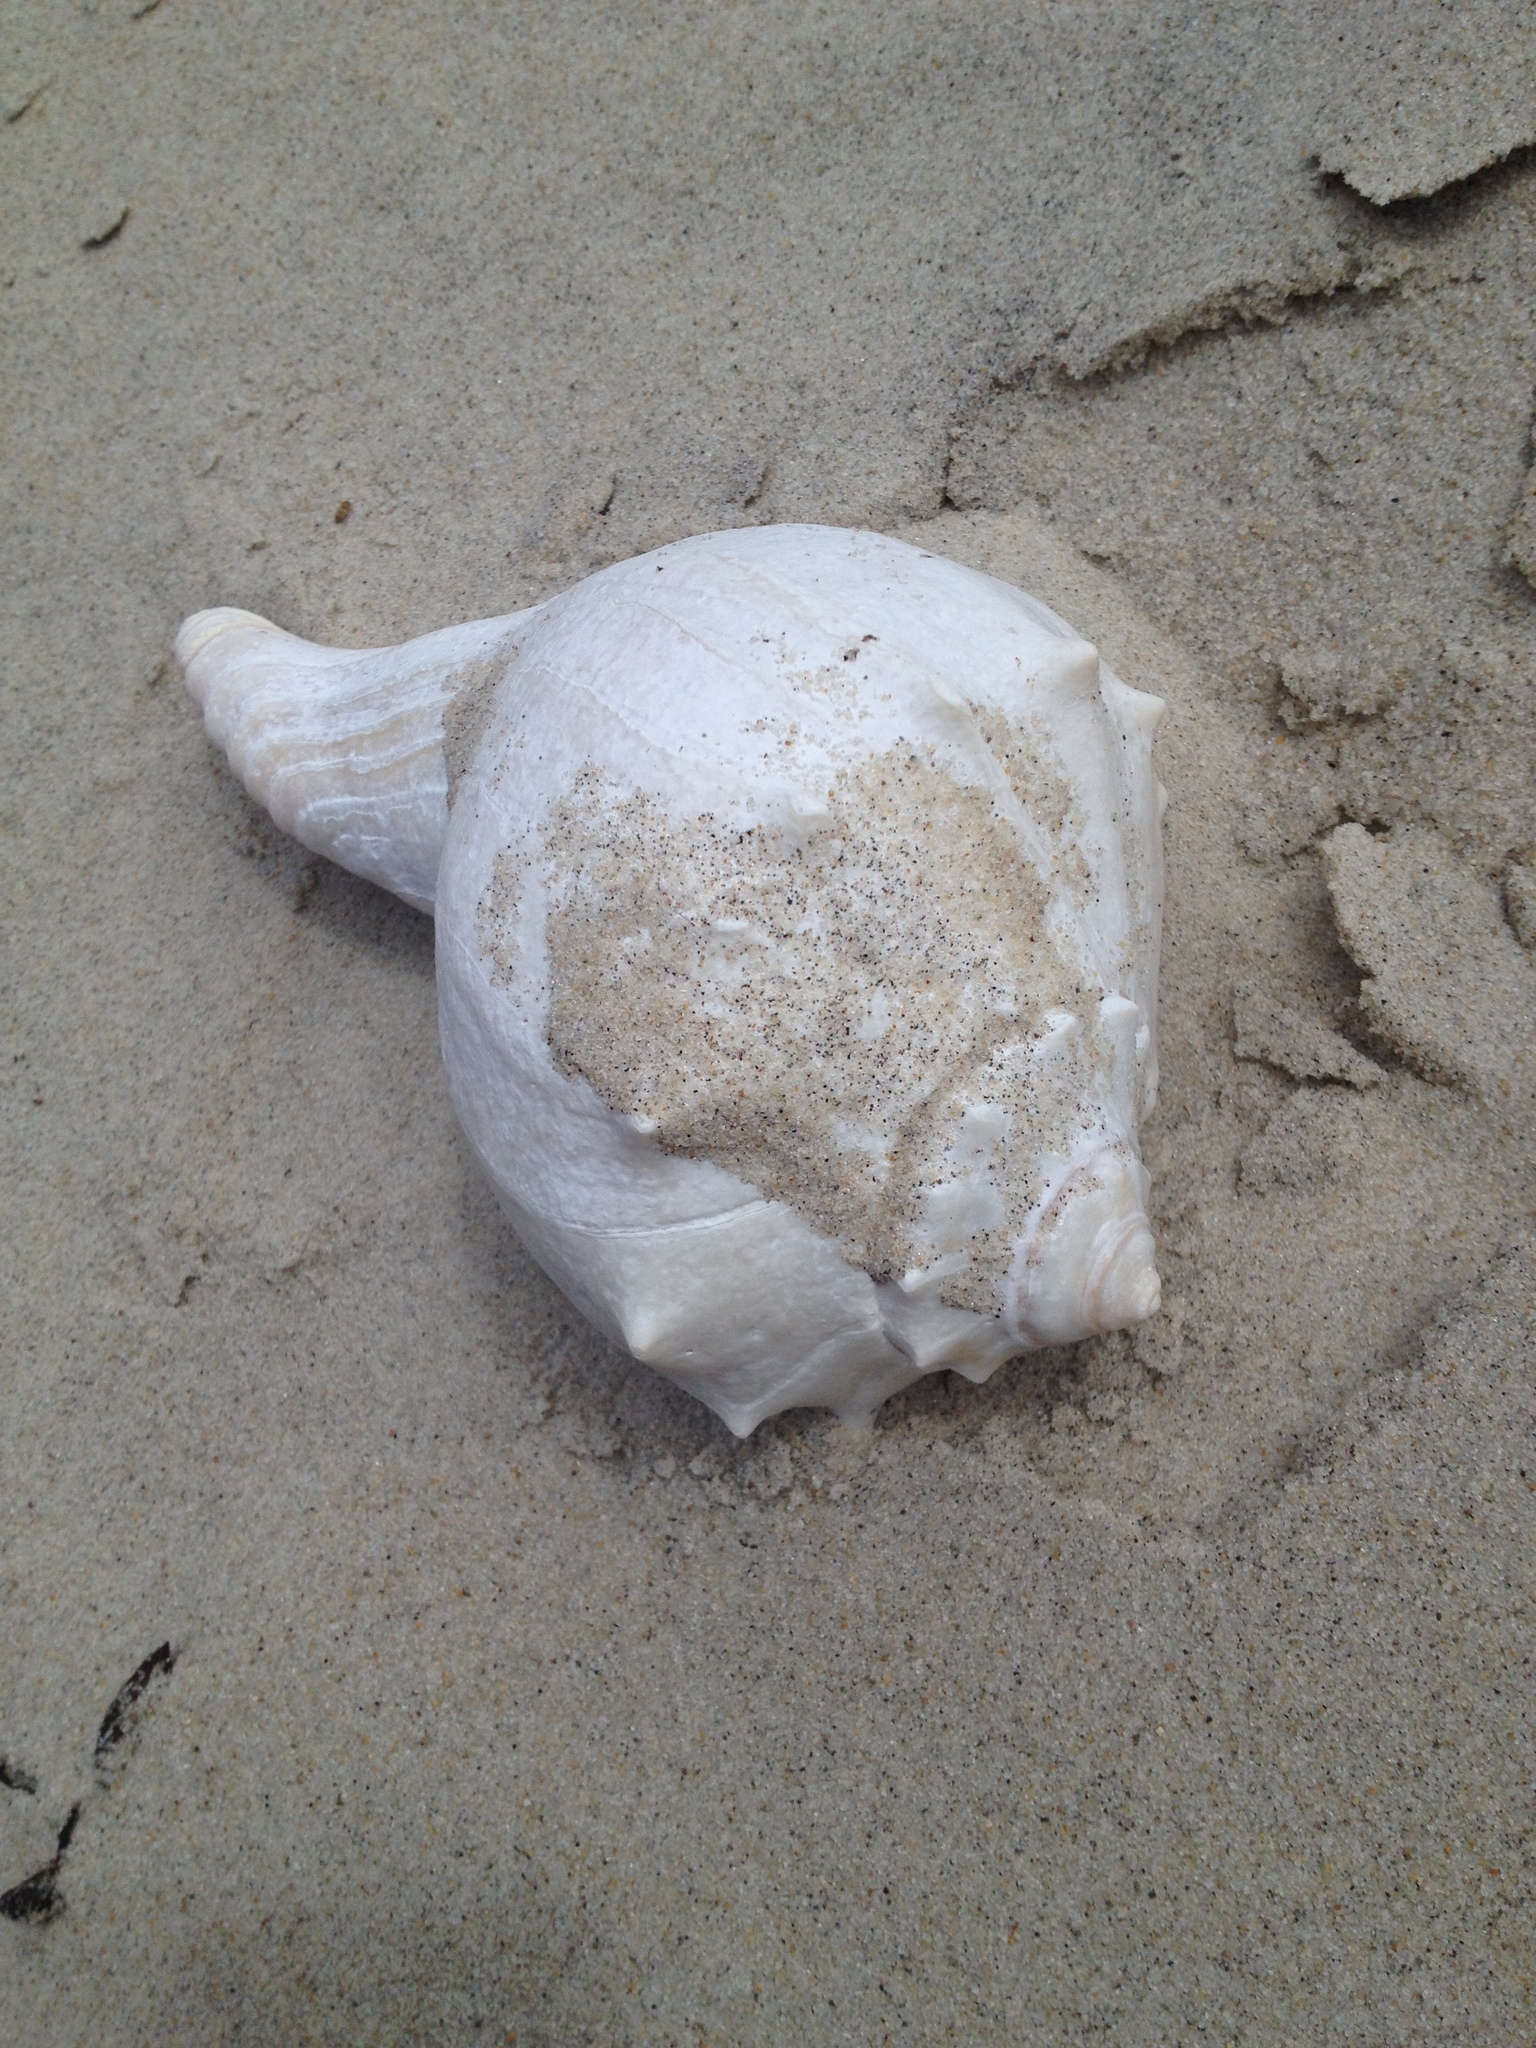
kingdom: Animalia
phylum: Mollusca
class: Gastropoda
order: Neogastropoda
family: Busyconidae
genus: Busycon
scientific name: Busycon carica
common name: Knobbed whelk
